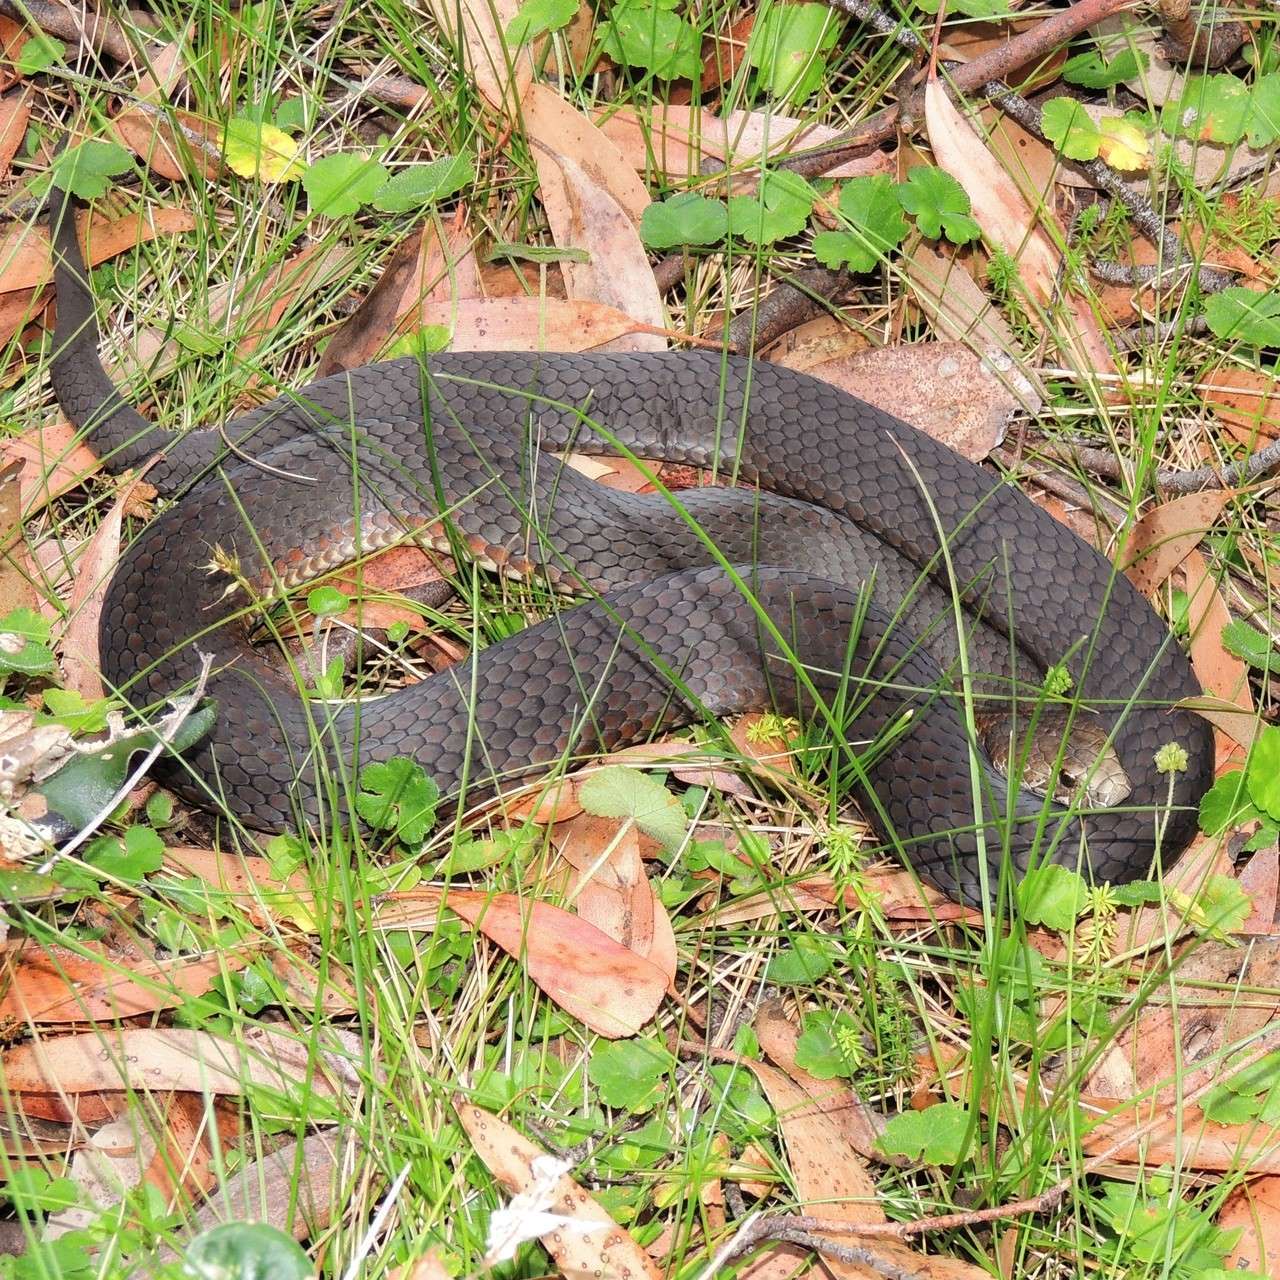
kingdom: Animalia
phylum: Chordata
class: Squamata
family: Elapidae
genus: Austrelaps
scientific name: Austrelaps ramsayi
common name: Highlands copperhead
